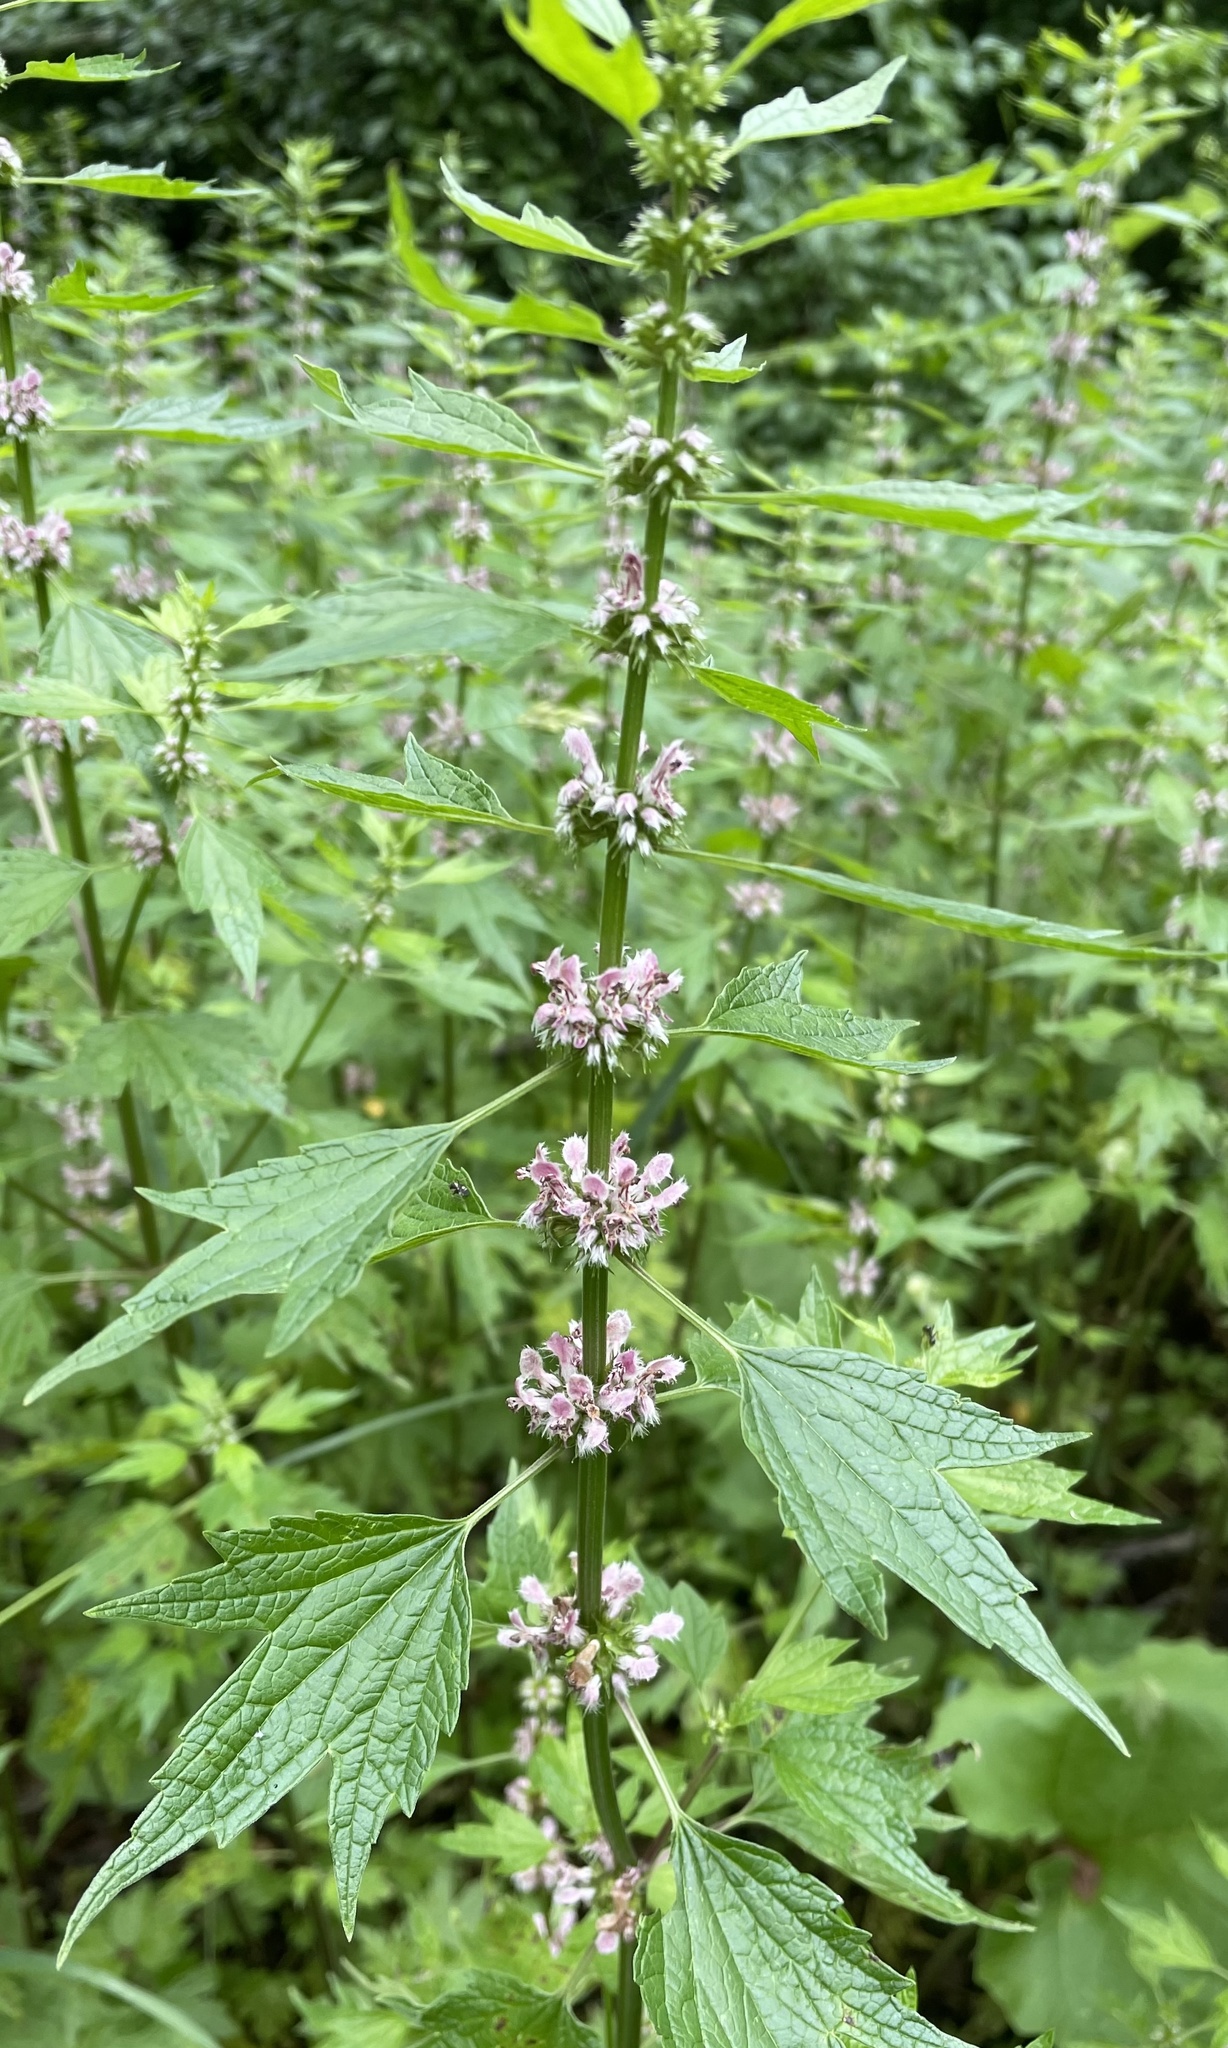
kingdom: Plantae
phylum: Tracheophyta
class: Magnoliopsida
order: Lamiales
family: Lamiaceae
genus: Leonurus
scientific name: Leonurus cardiaca
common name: Motherwort
